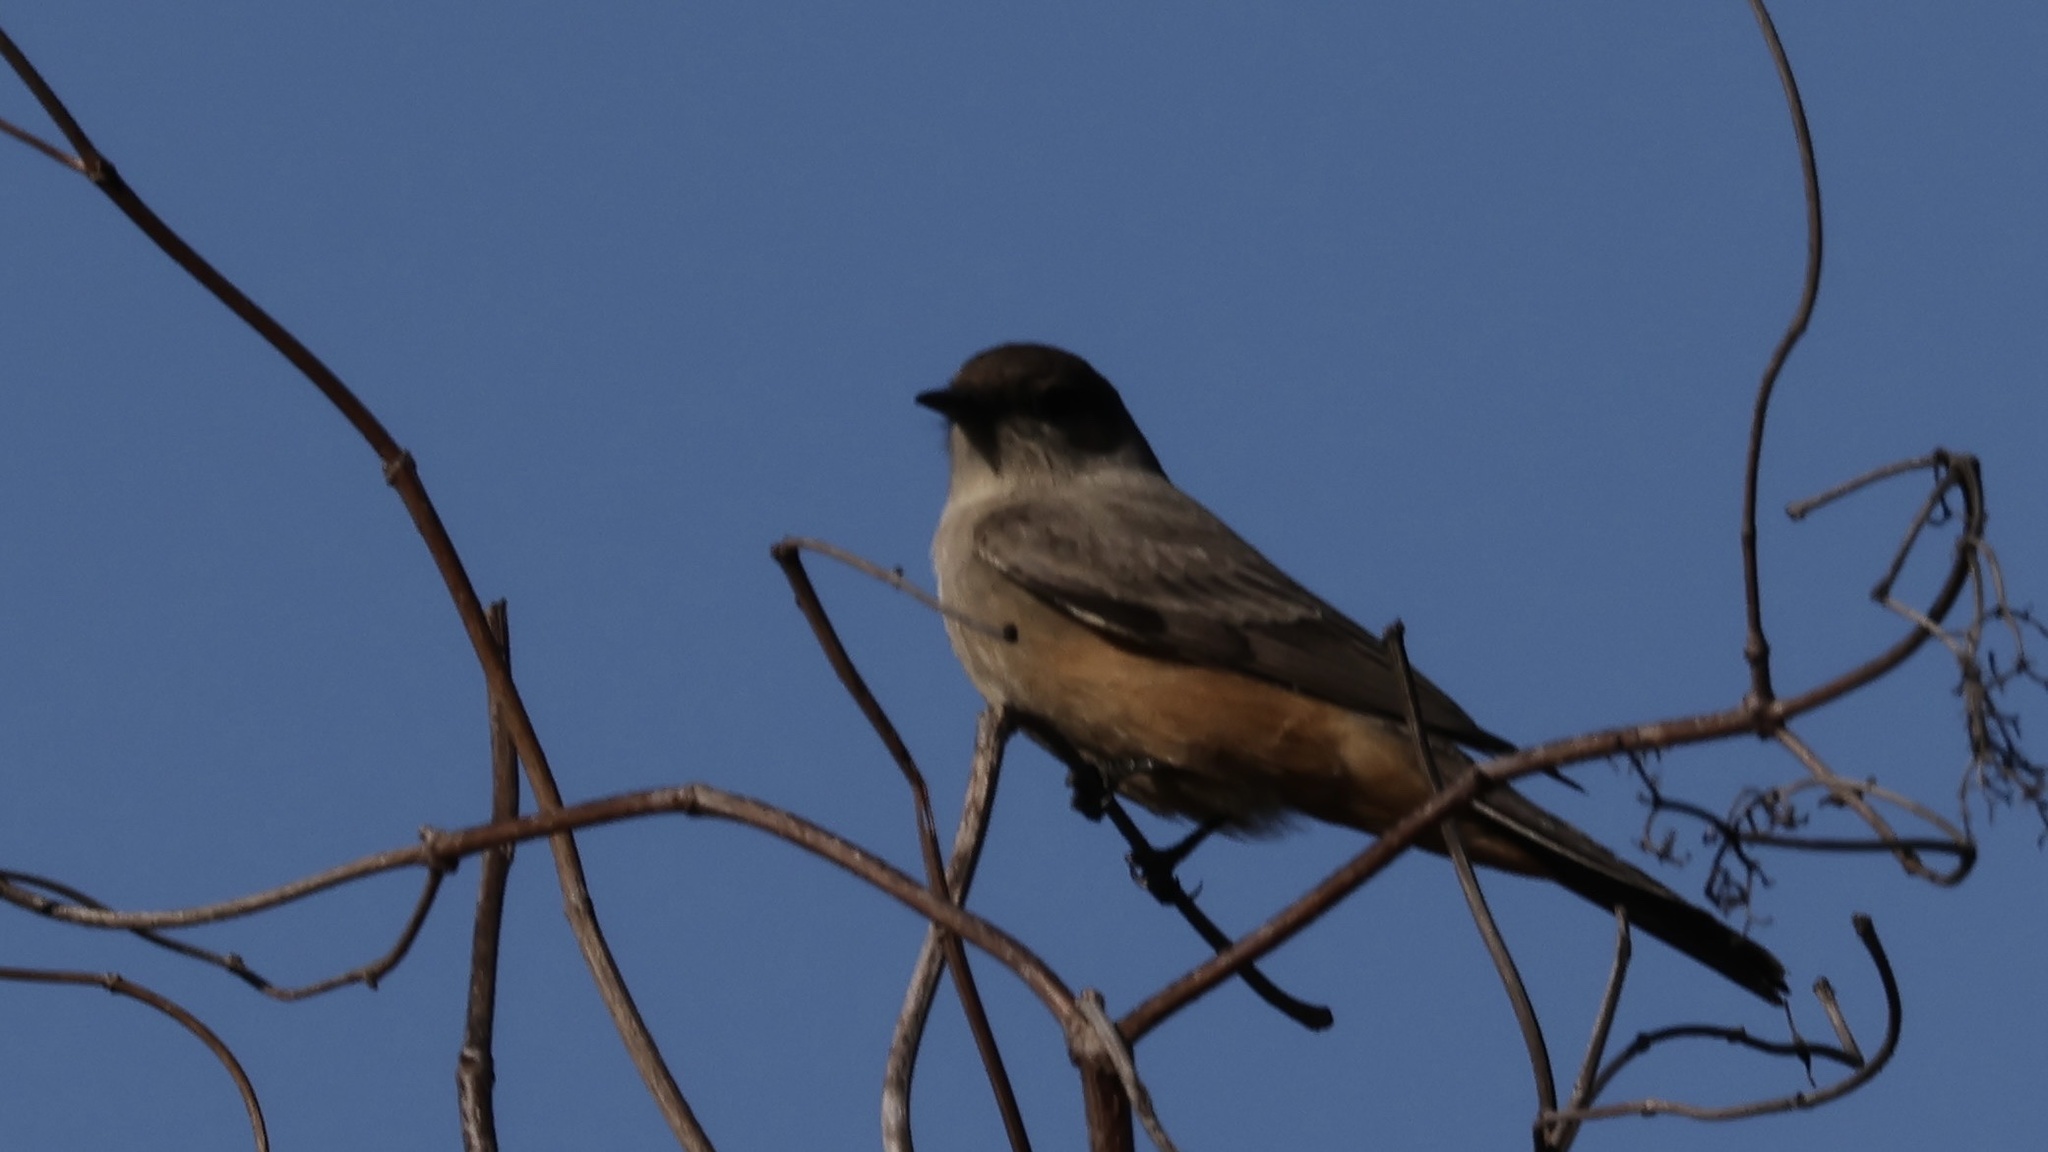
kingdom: Animalia
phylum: Chordata
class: Aves
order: Passeriformes
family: Tyrannidae
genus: Sayornis
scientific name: Sayornis saya
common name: Say's phoebe
